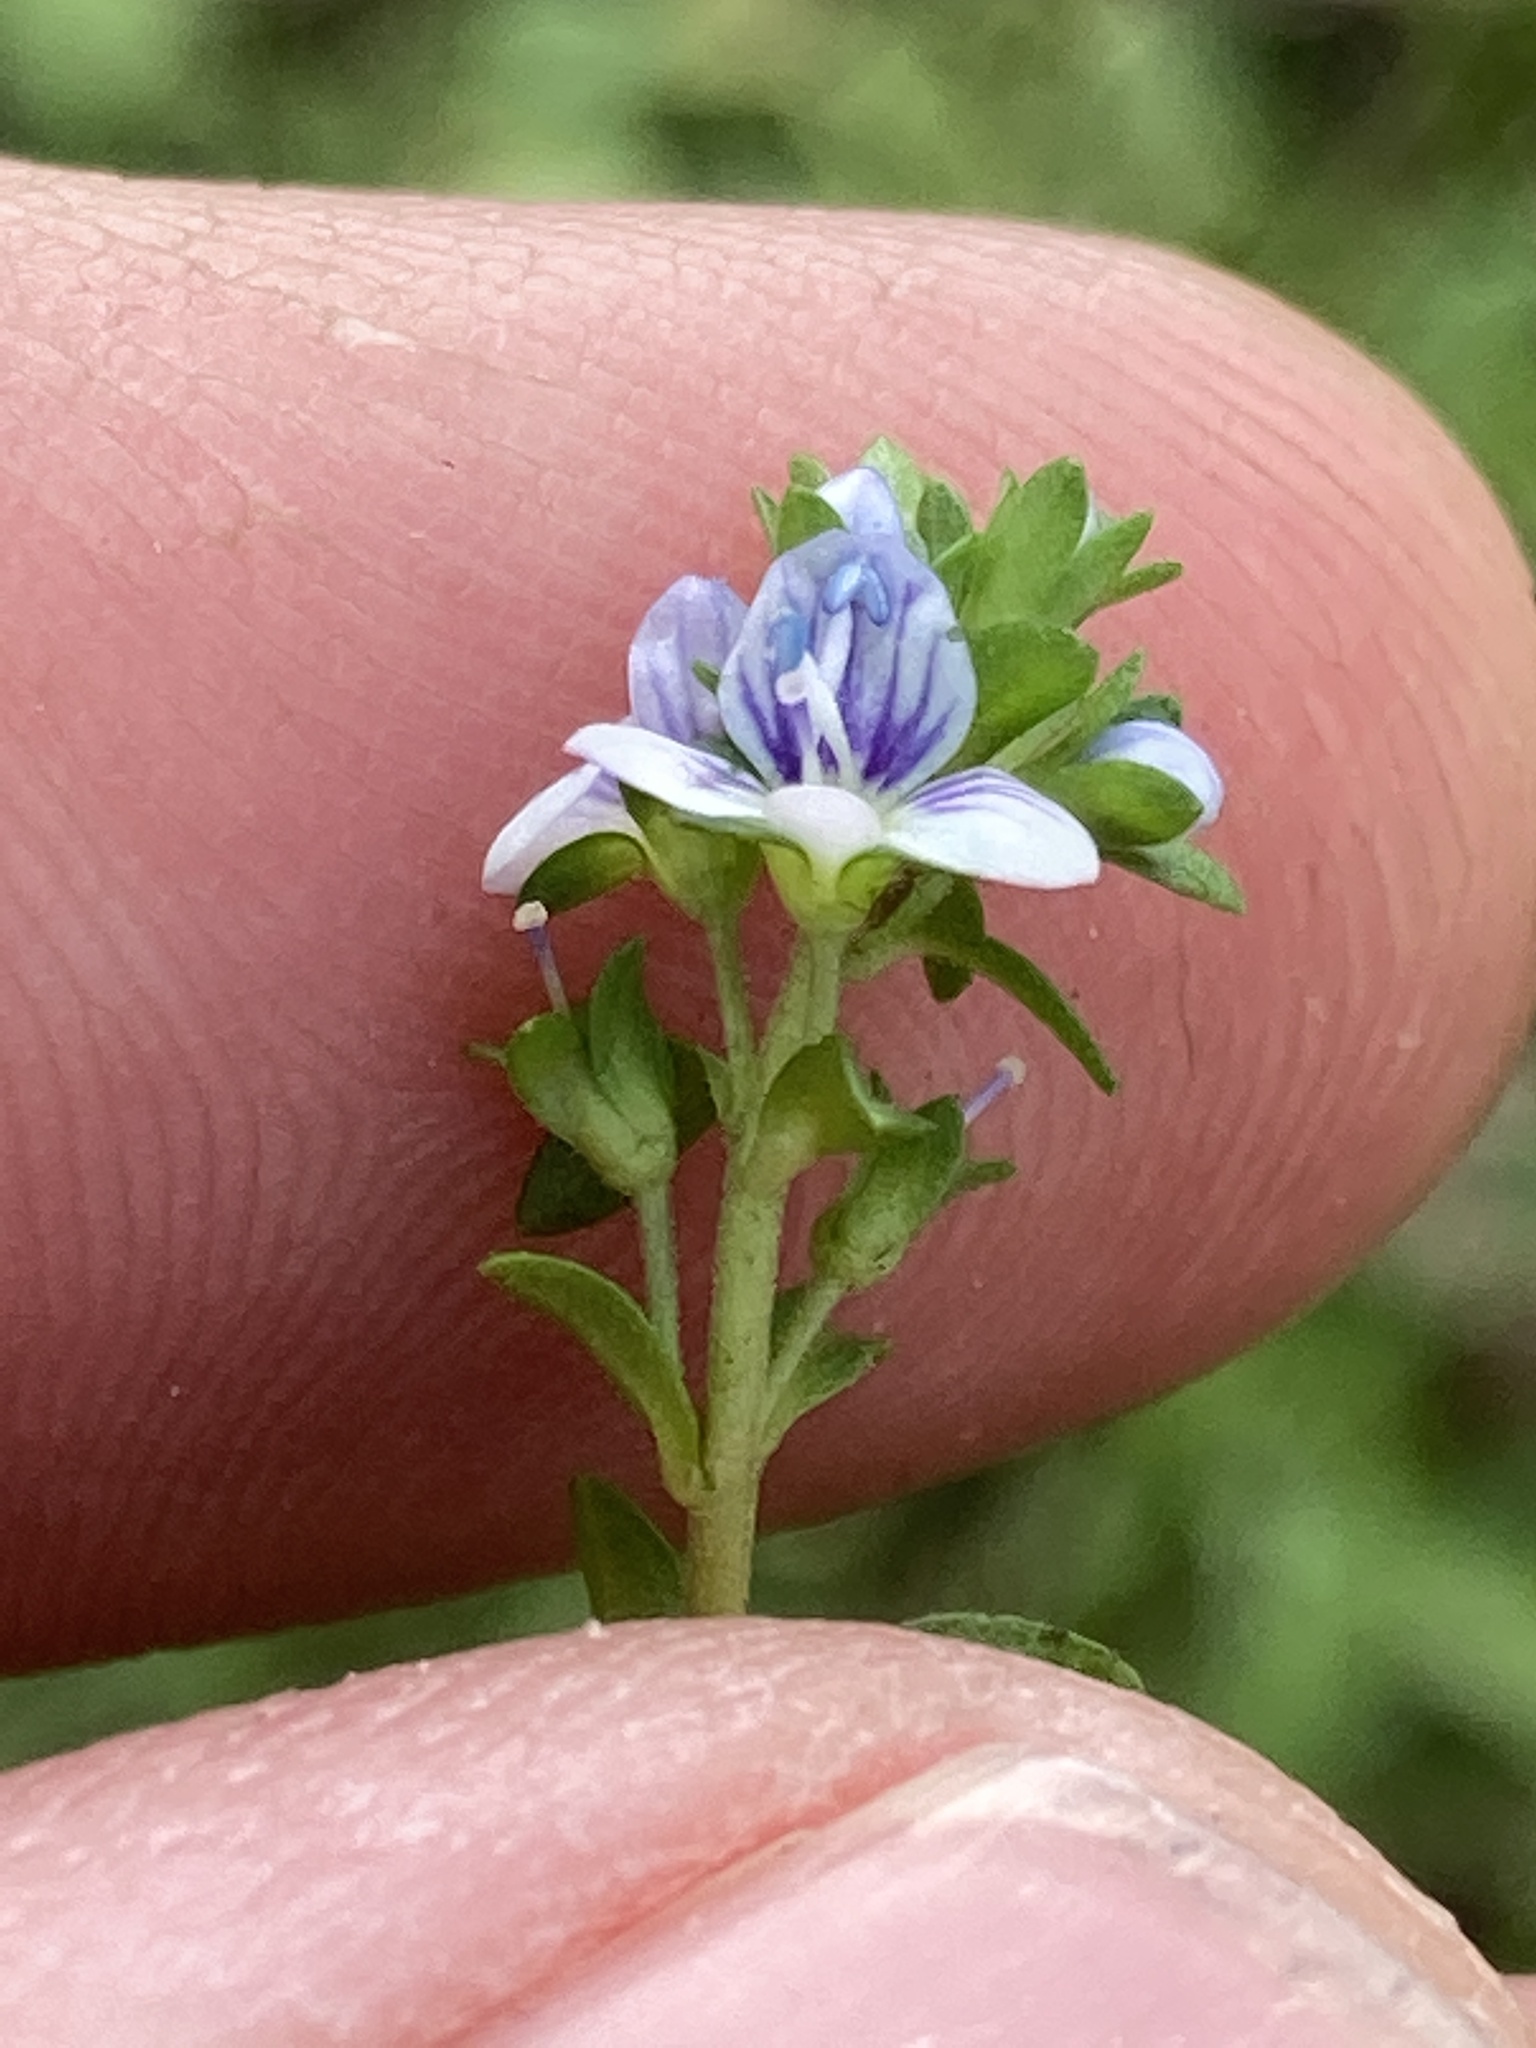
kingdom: Plantae
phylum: Tracheophyta
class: Magnoliopsida
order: Lamiales
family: Plantaginaceae
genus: Veronica
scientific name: Veronica serpyllifolia
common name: Thyme-leaved speedwell
